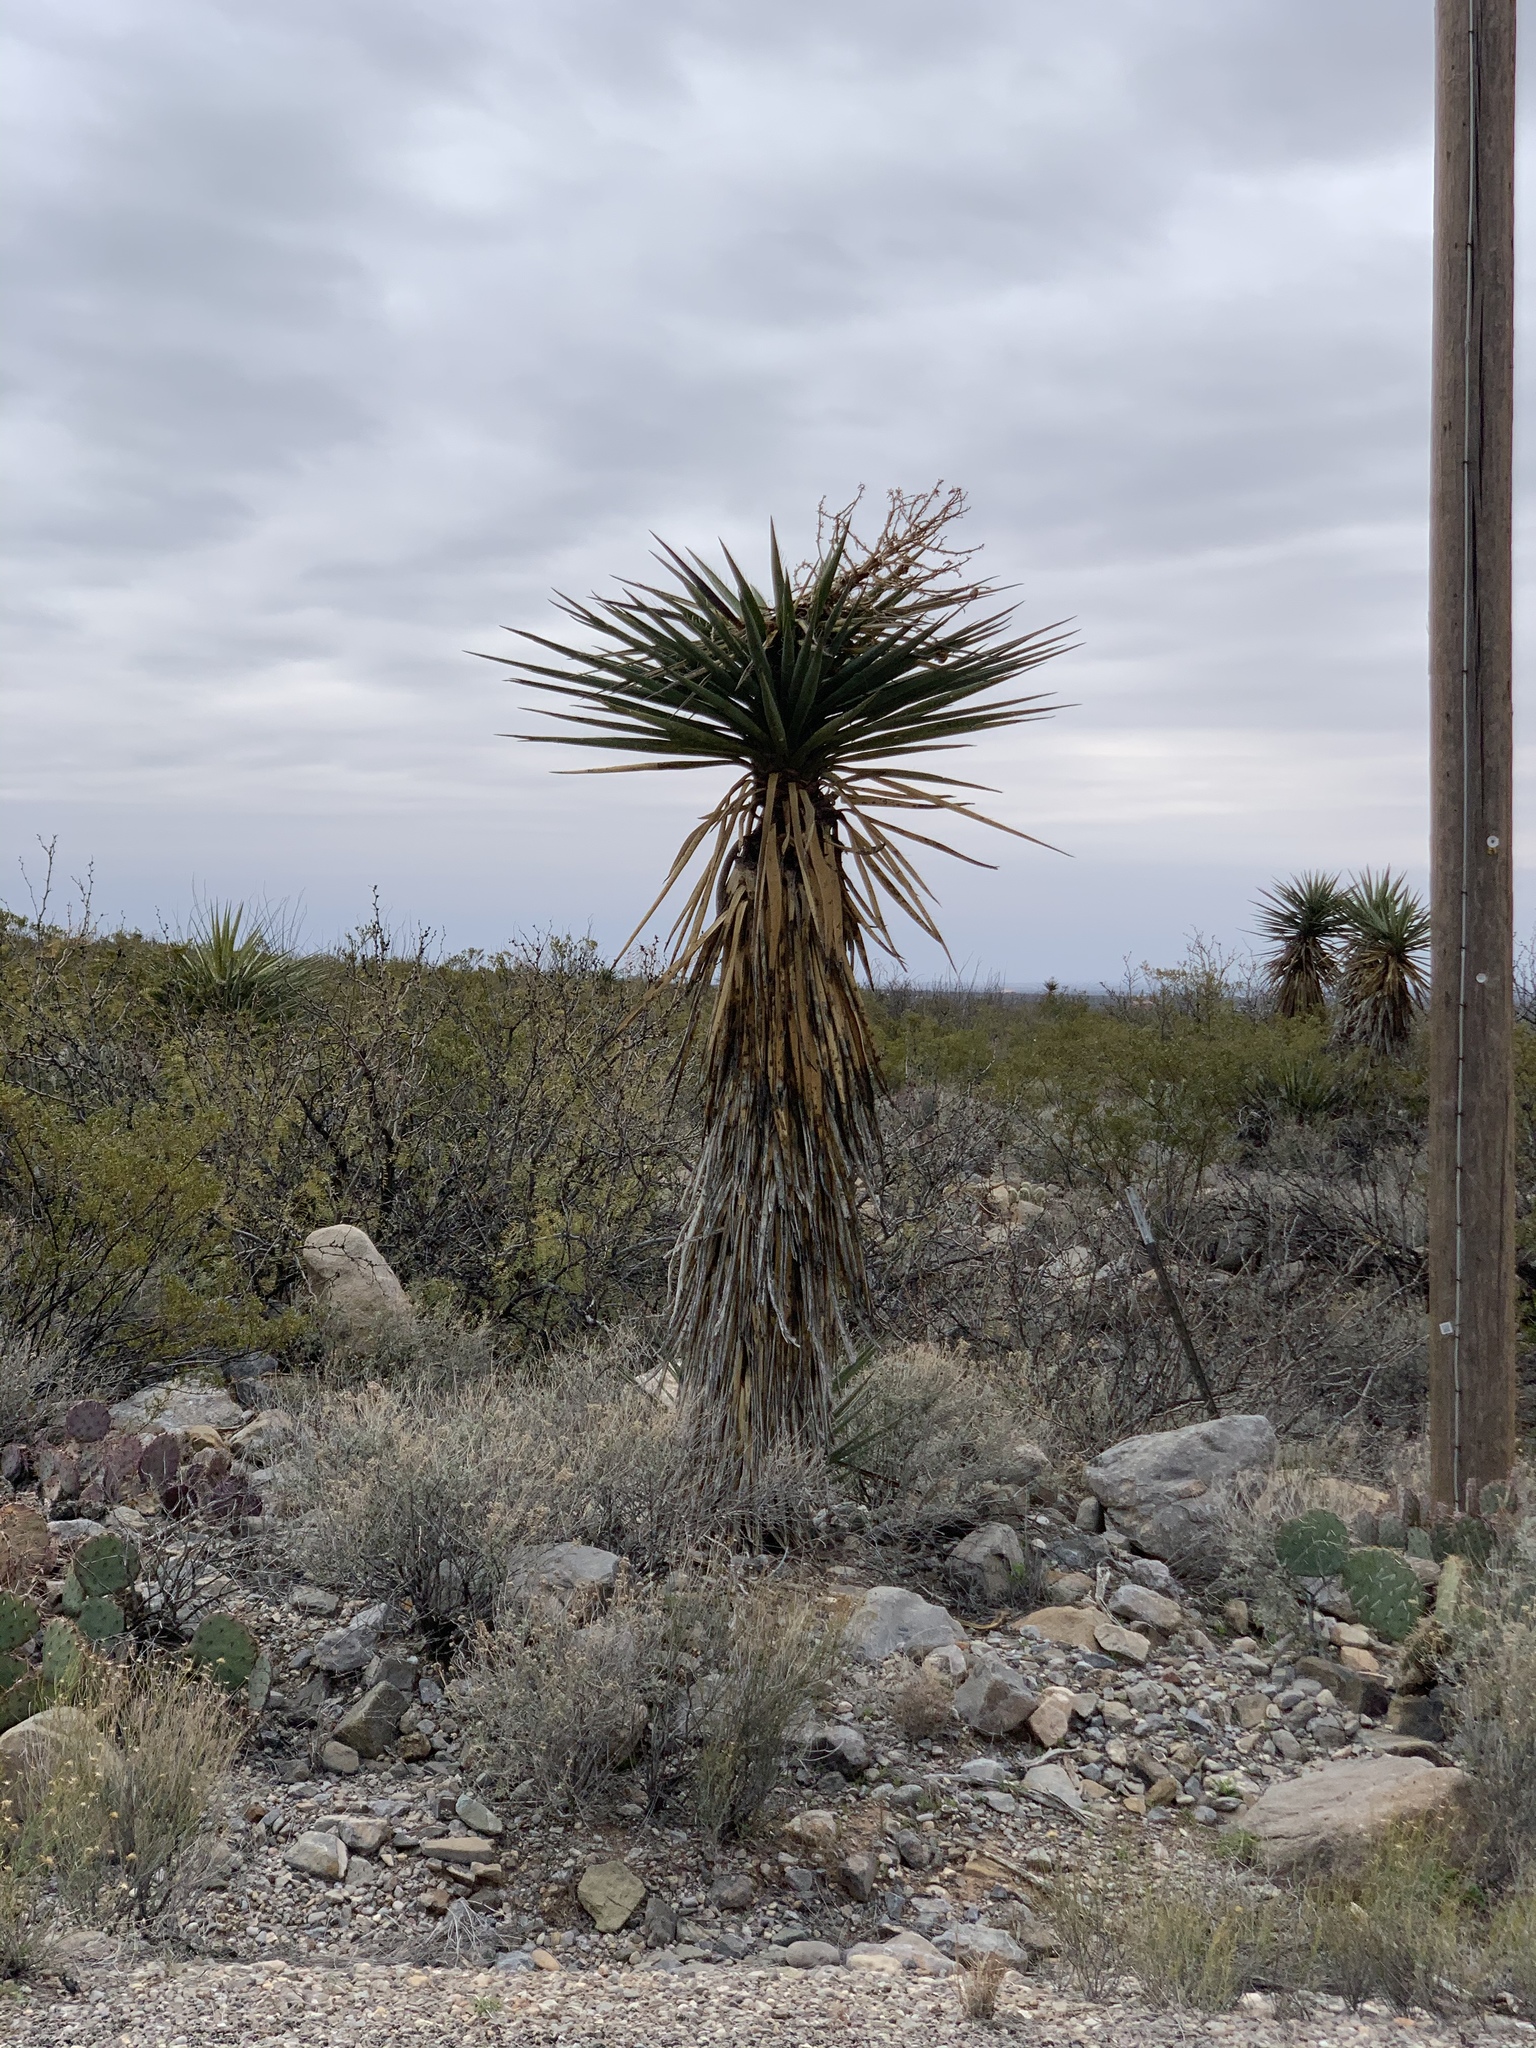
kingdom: Plantae
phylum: Tracheophyta
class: Liliopsida
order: Asparagales
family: Asparagaceae
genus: Yucca
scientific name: Yucca treculiana
